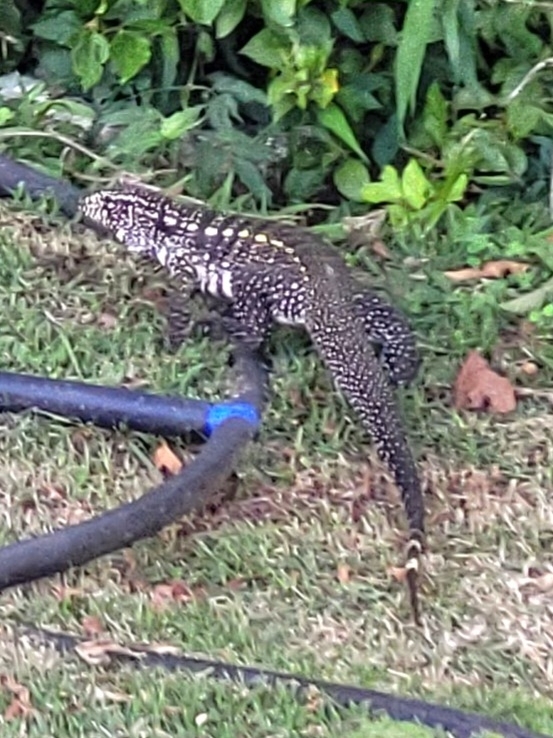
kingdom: Animalia
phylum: Chordata
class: Squamata
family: Teiidae
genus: Salvator
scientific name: Salvator merianae
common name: Argentine black and white tegu
